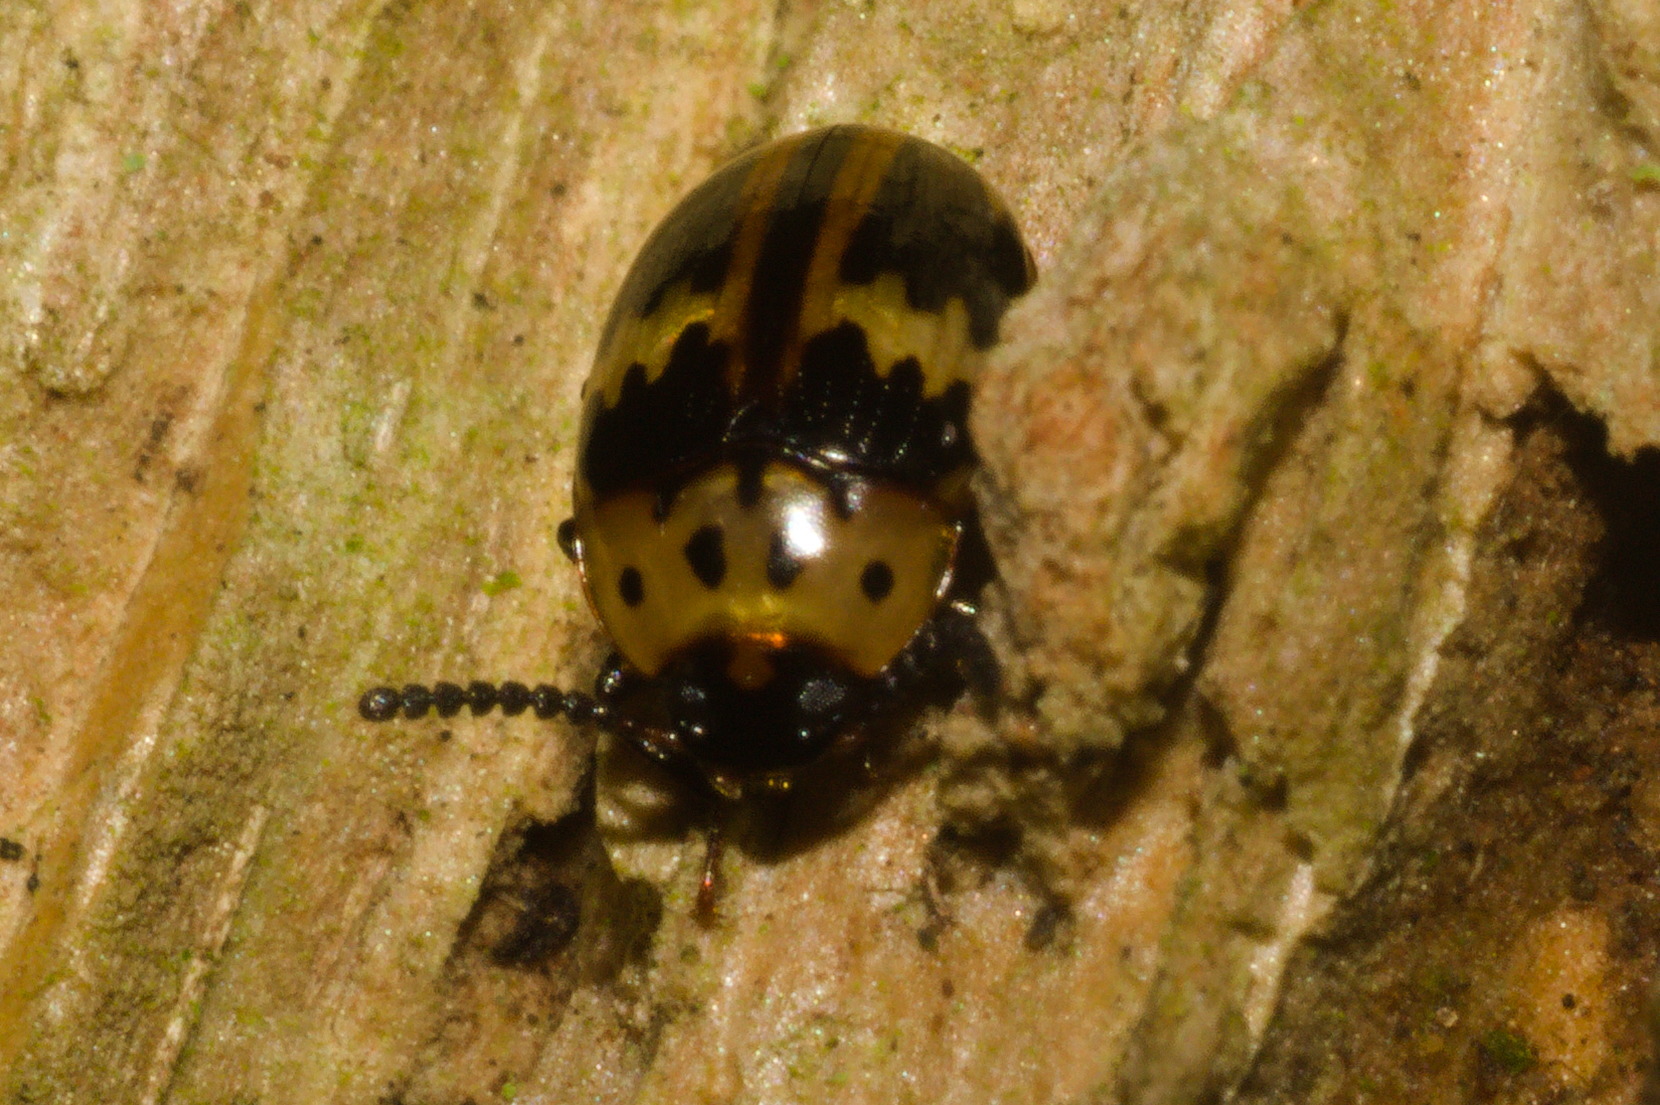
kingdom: Animalia
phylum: Arthropoda
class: Insecta
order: Coleoptera
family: Tenebrionidae
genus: Cosmonota
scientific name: Cosmonota
